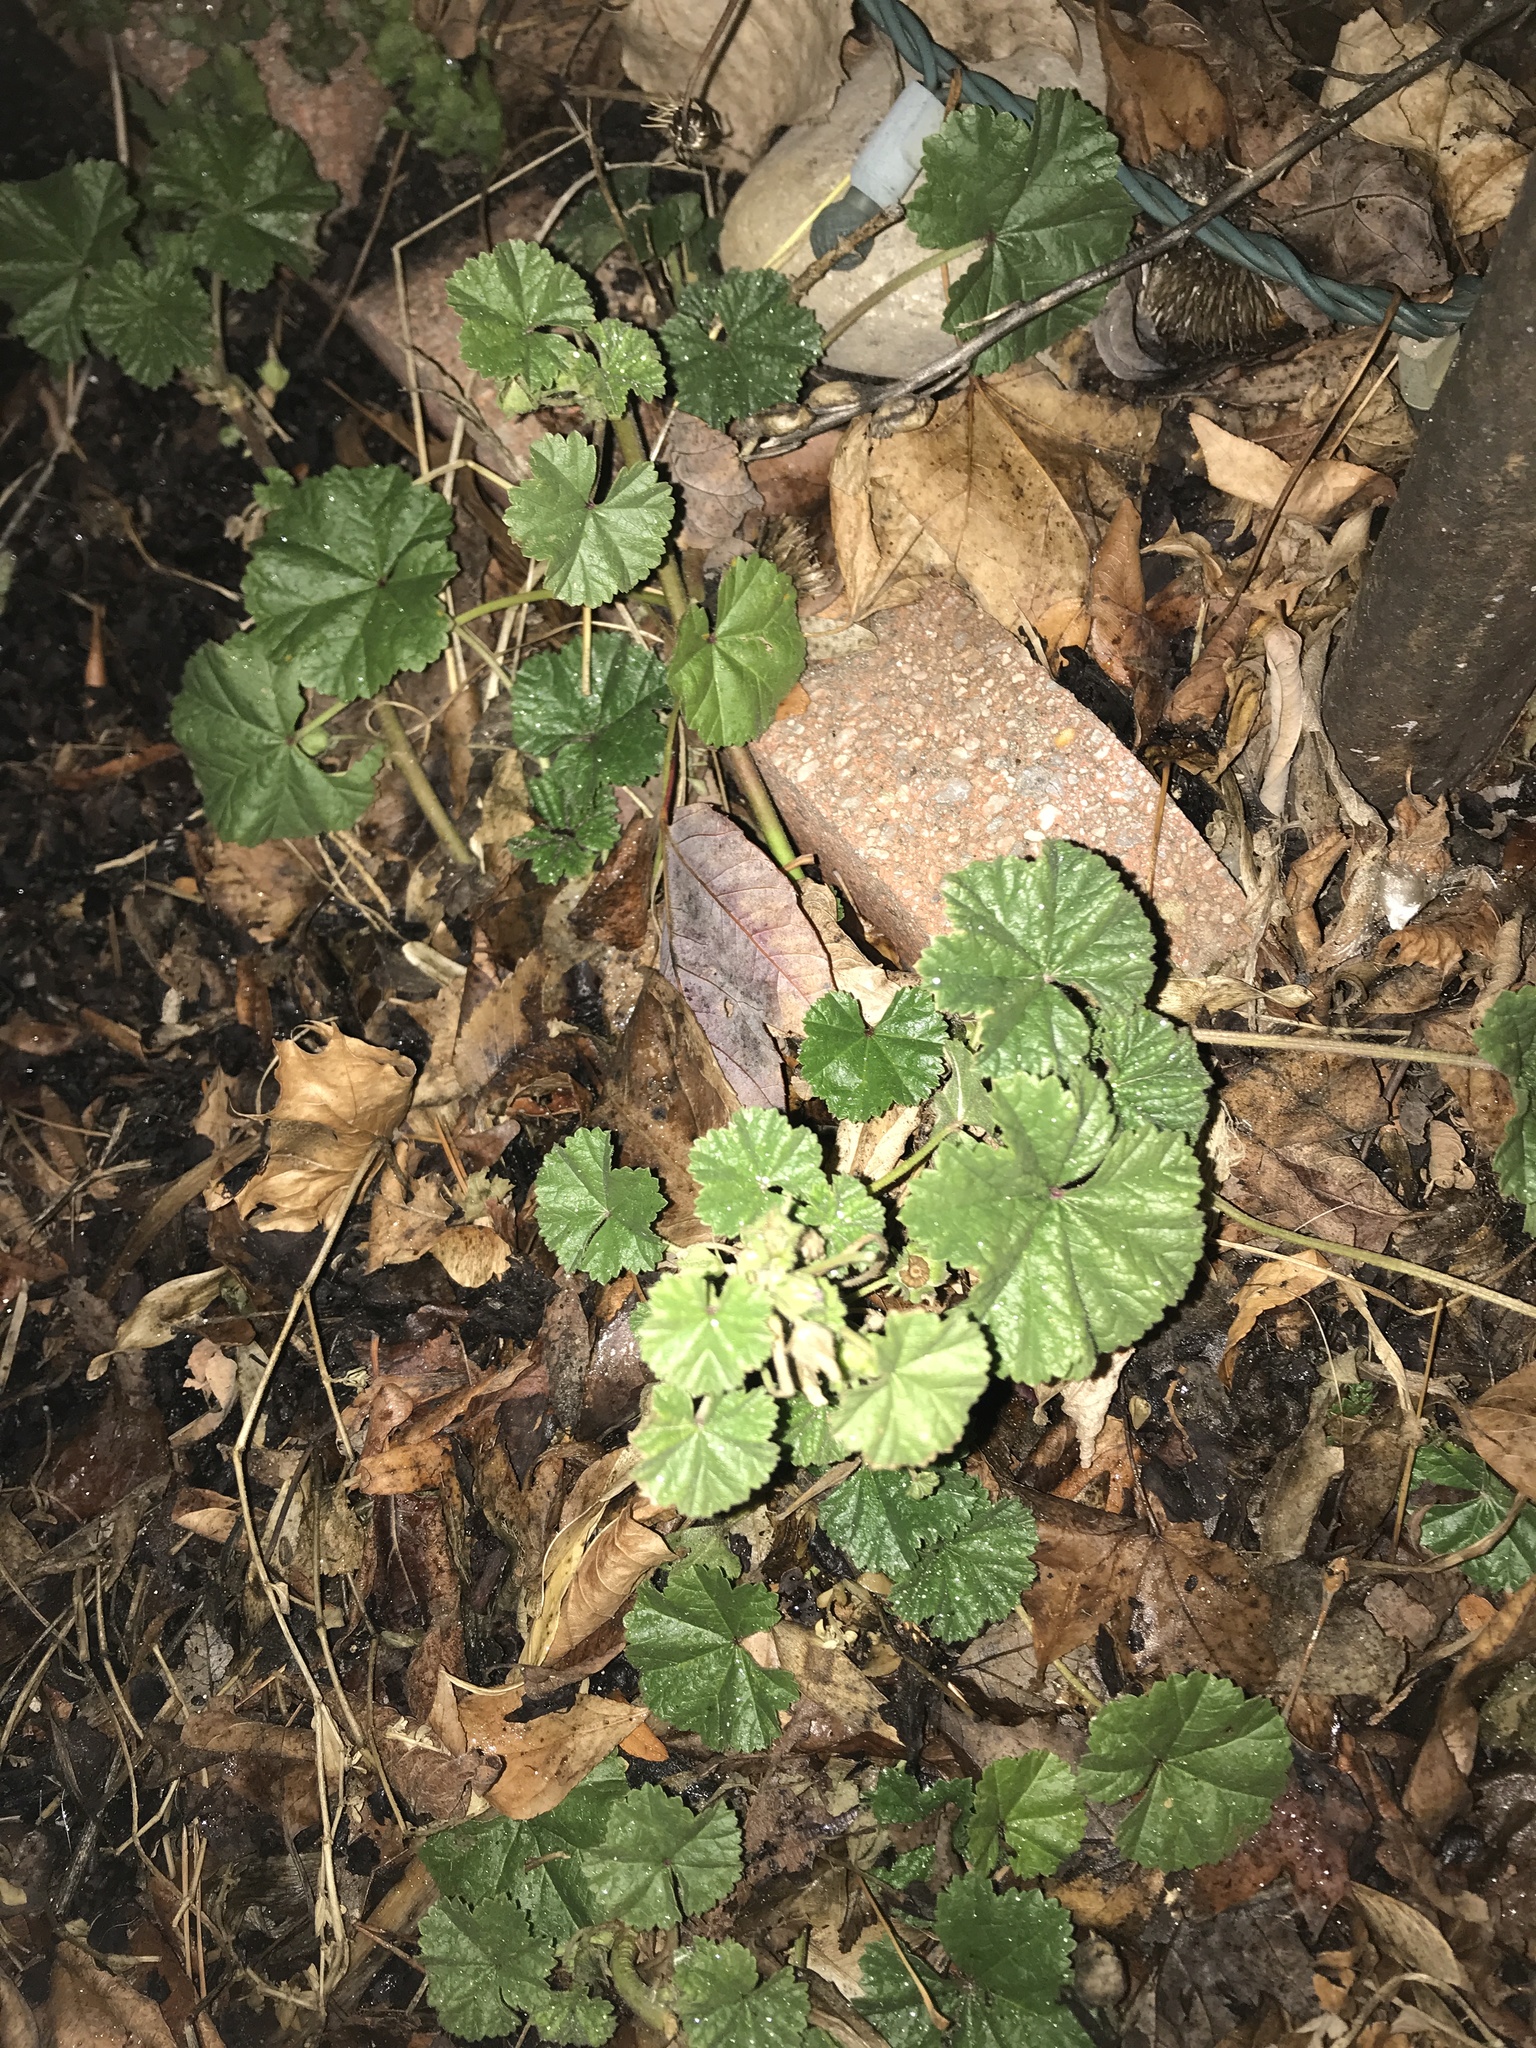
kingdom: Plantae
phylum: Tracheophyta
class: Magnoliopsida
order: Malvales
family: Malvaceae
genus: Malva
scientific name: Malva neglecta
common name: Common mallow
